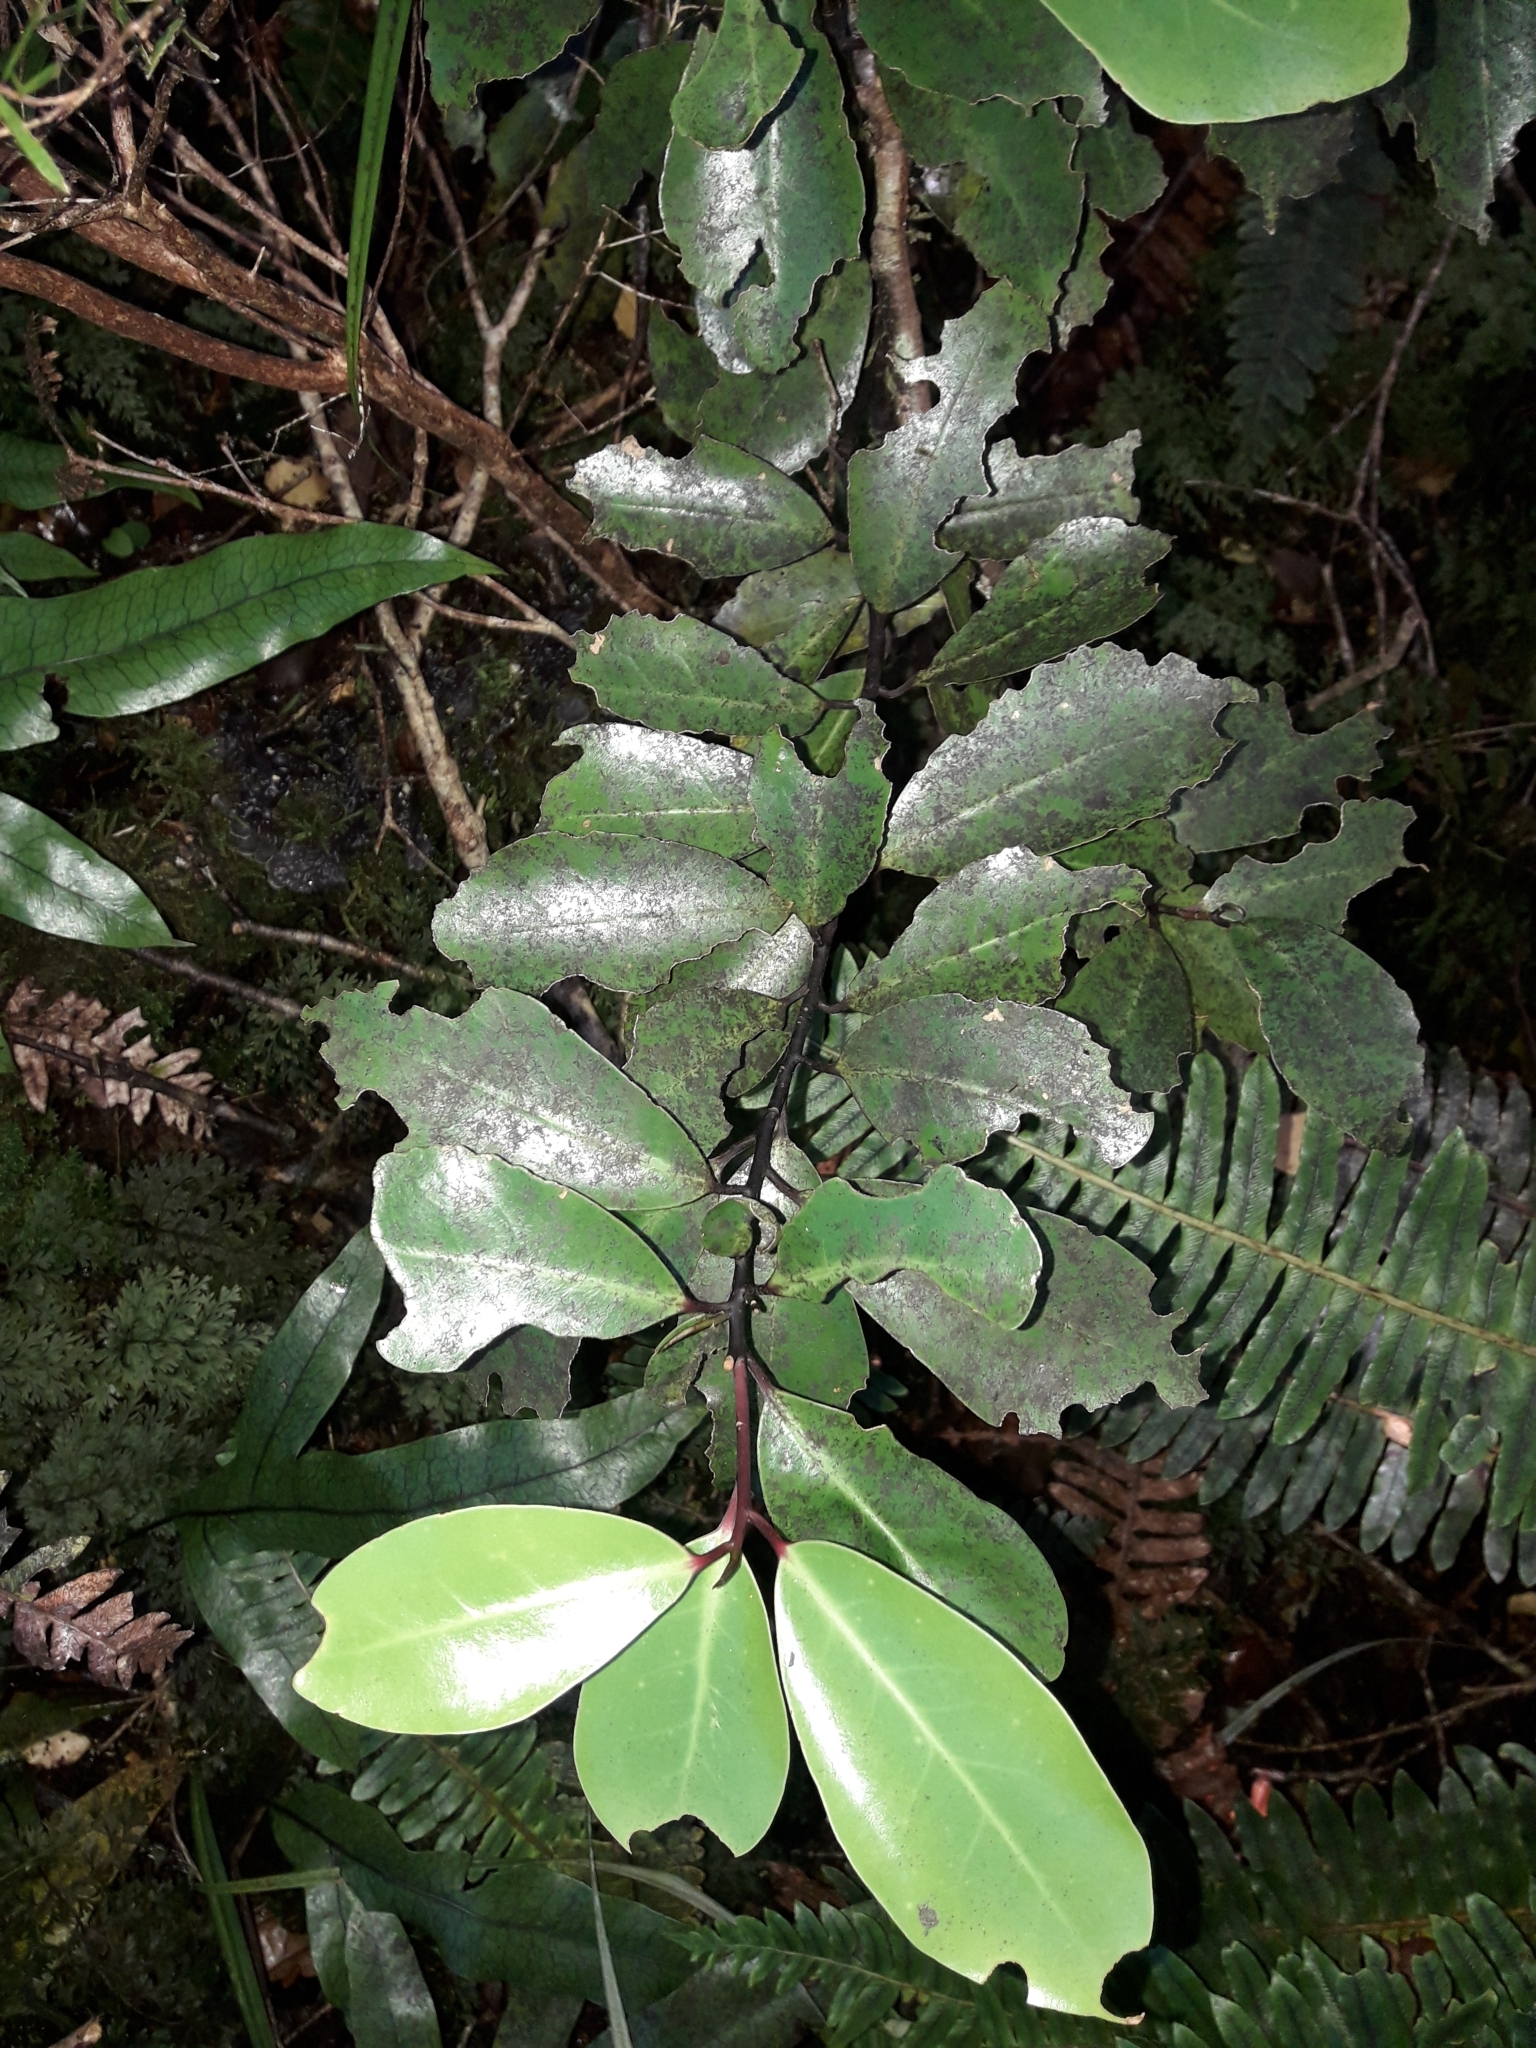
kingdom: Plantae
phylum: Tracheophyta
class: Magnoliopsida
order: Canellales
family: Winteraceae
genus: Pseudowintera
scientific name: Pseudowintera axillaris
